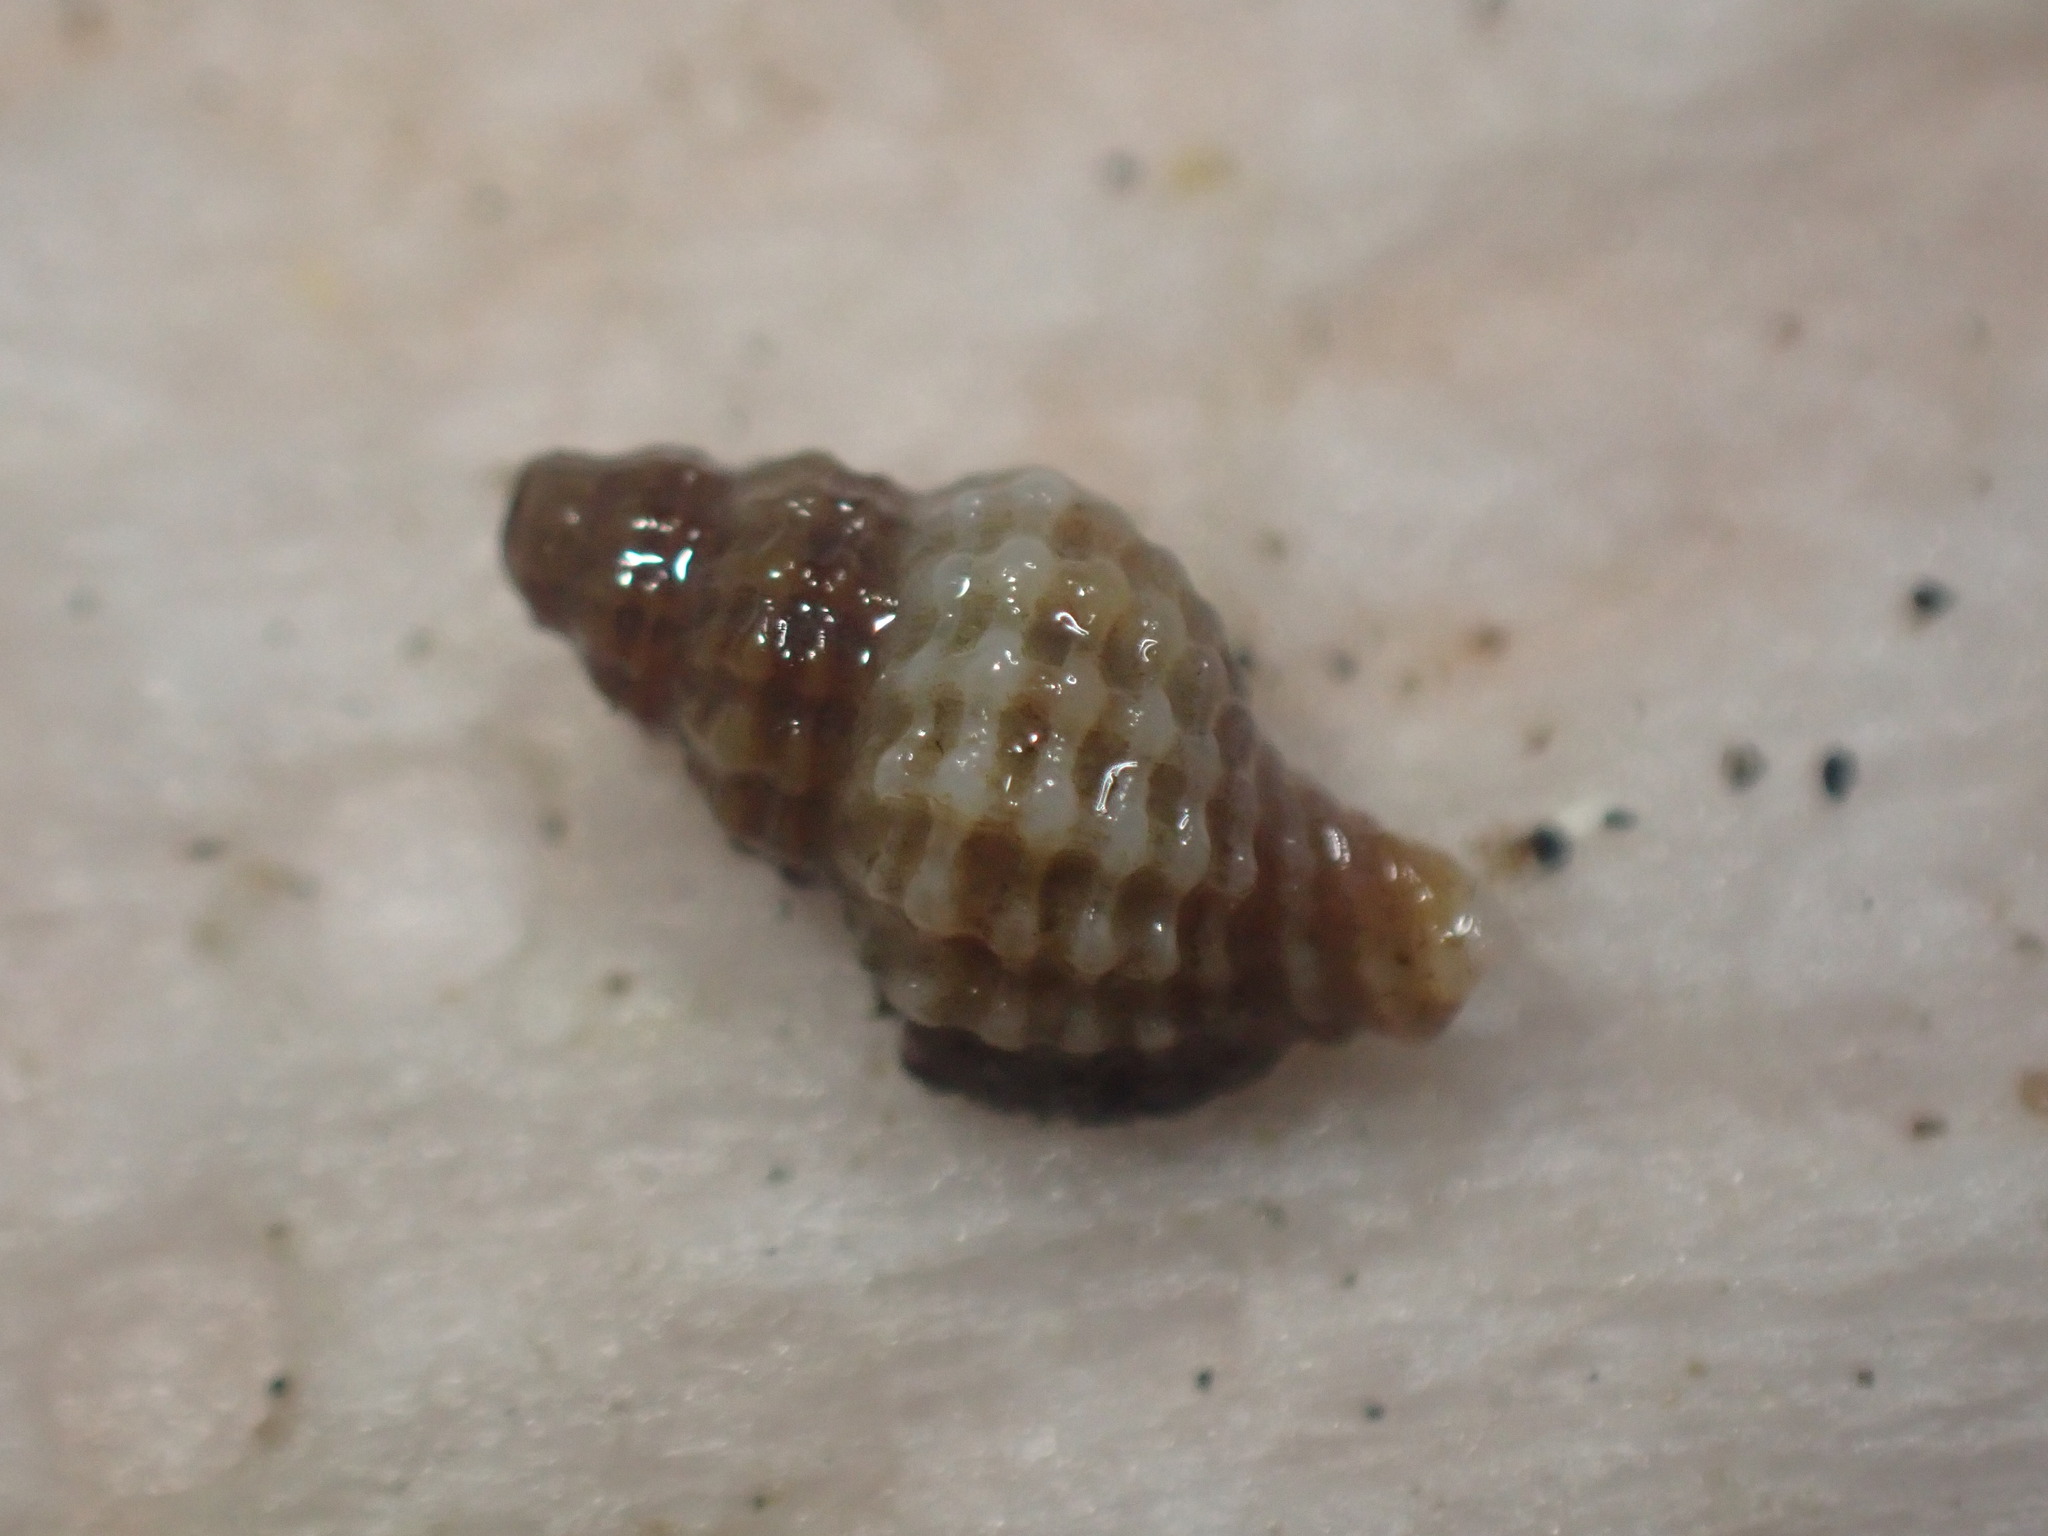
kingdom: Animalia
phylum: Mollusca
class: Gastropoda
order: Neogastropoda
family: Muricidae
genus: Xymenella
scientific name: Xymenella pusilla
